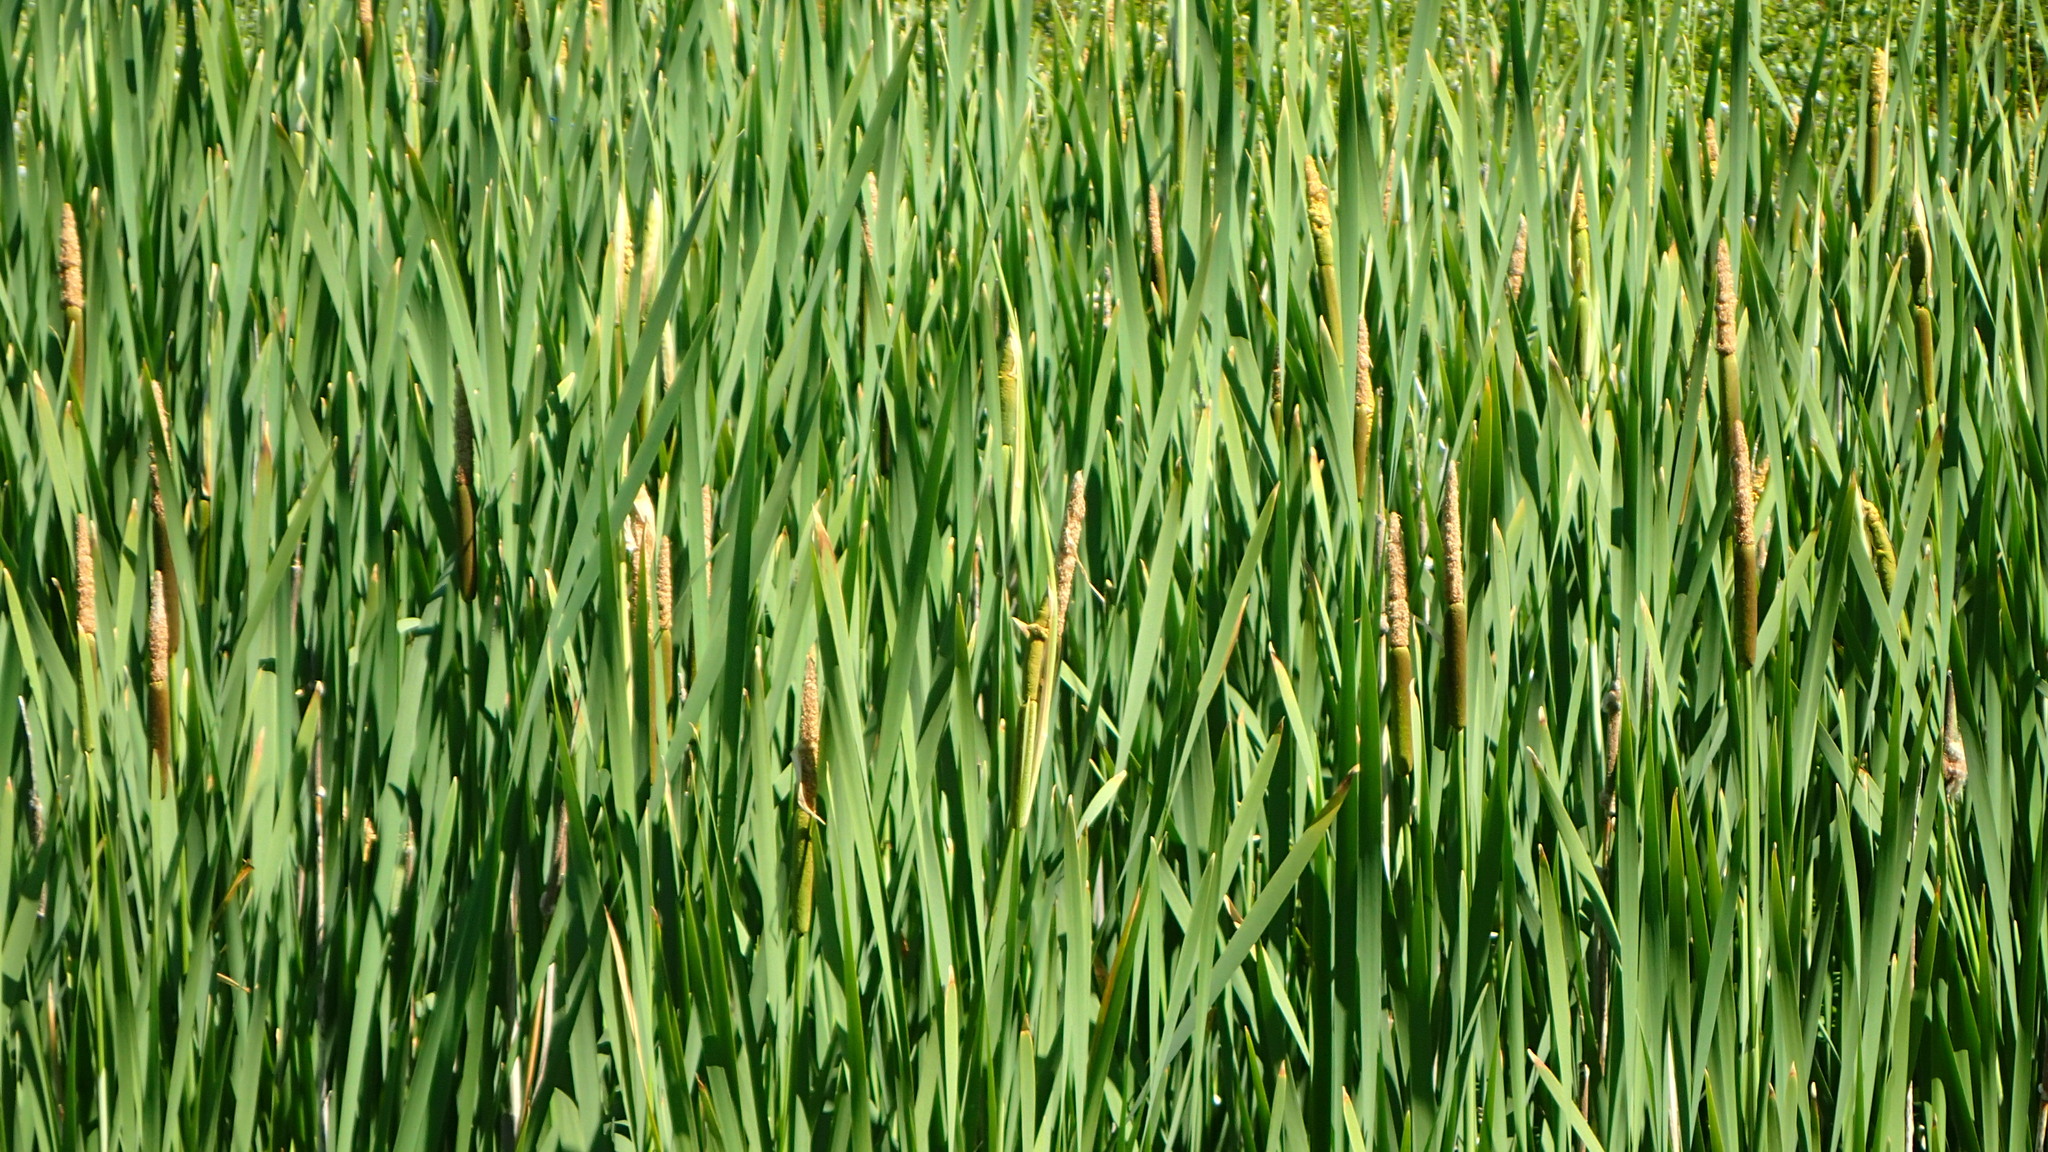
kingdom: Plantae
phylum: Tracheophyta
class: Liliopsida
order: Poales
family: Typhaceae
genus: Typha
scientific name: Typha latifolia
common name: Broadleaf cattail
